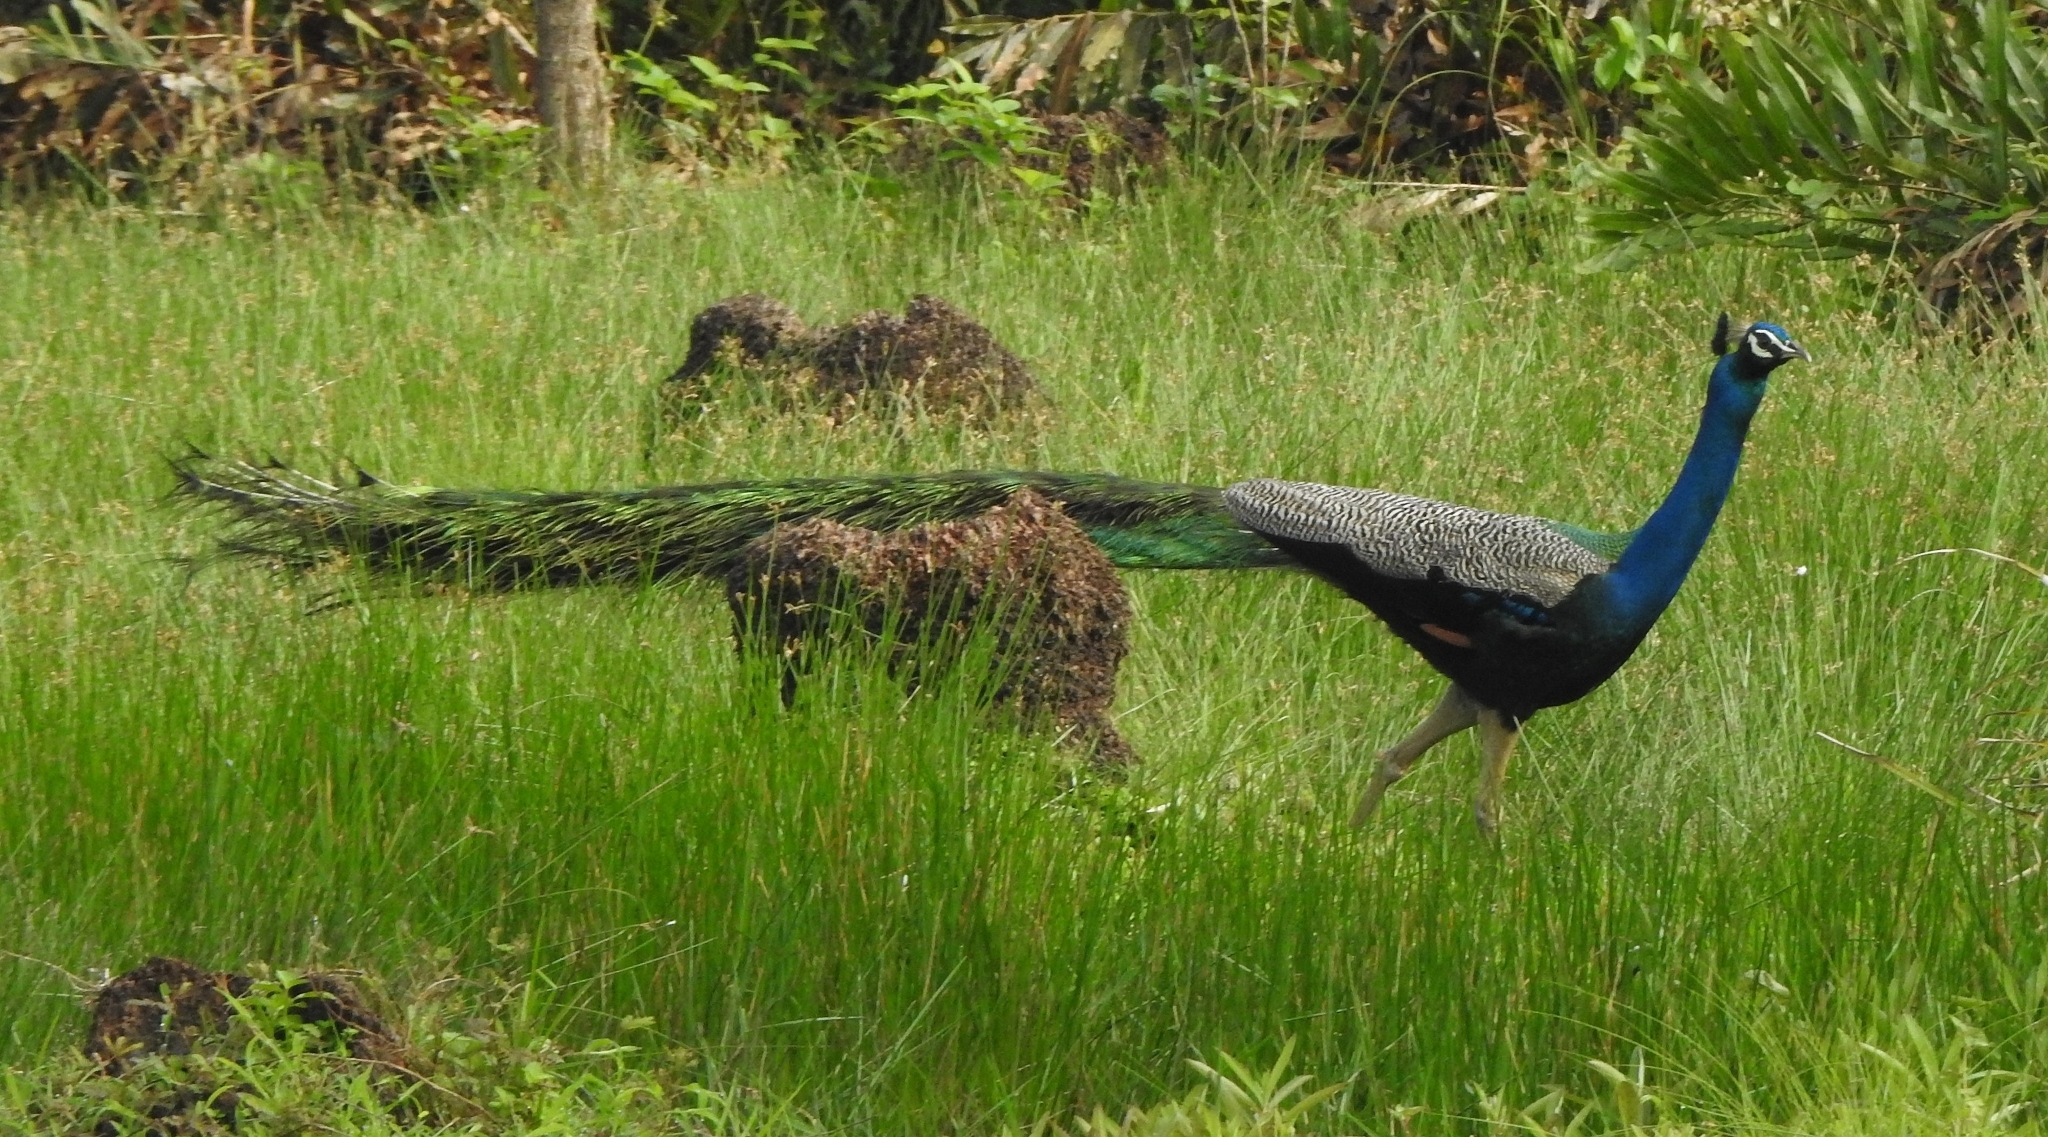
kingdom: Animalia
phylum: Chordata
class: Aves
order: Galliformes
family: Phasianidae
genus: Pavo
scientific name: Pavo cristatus
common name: Indian peafowl
